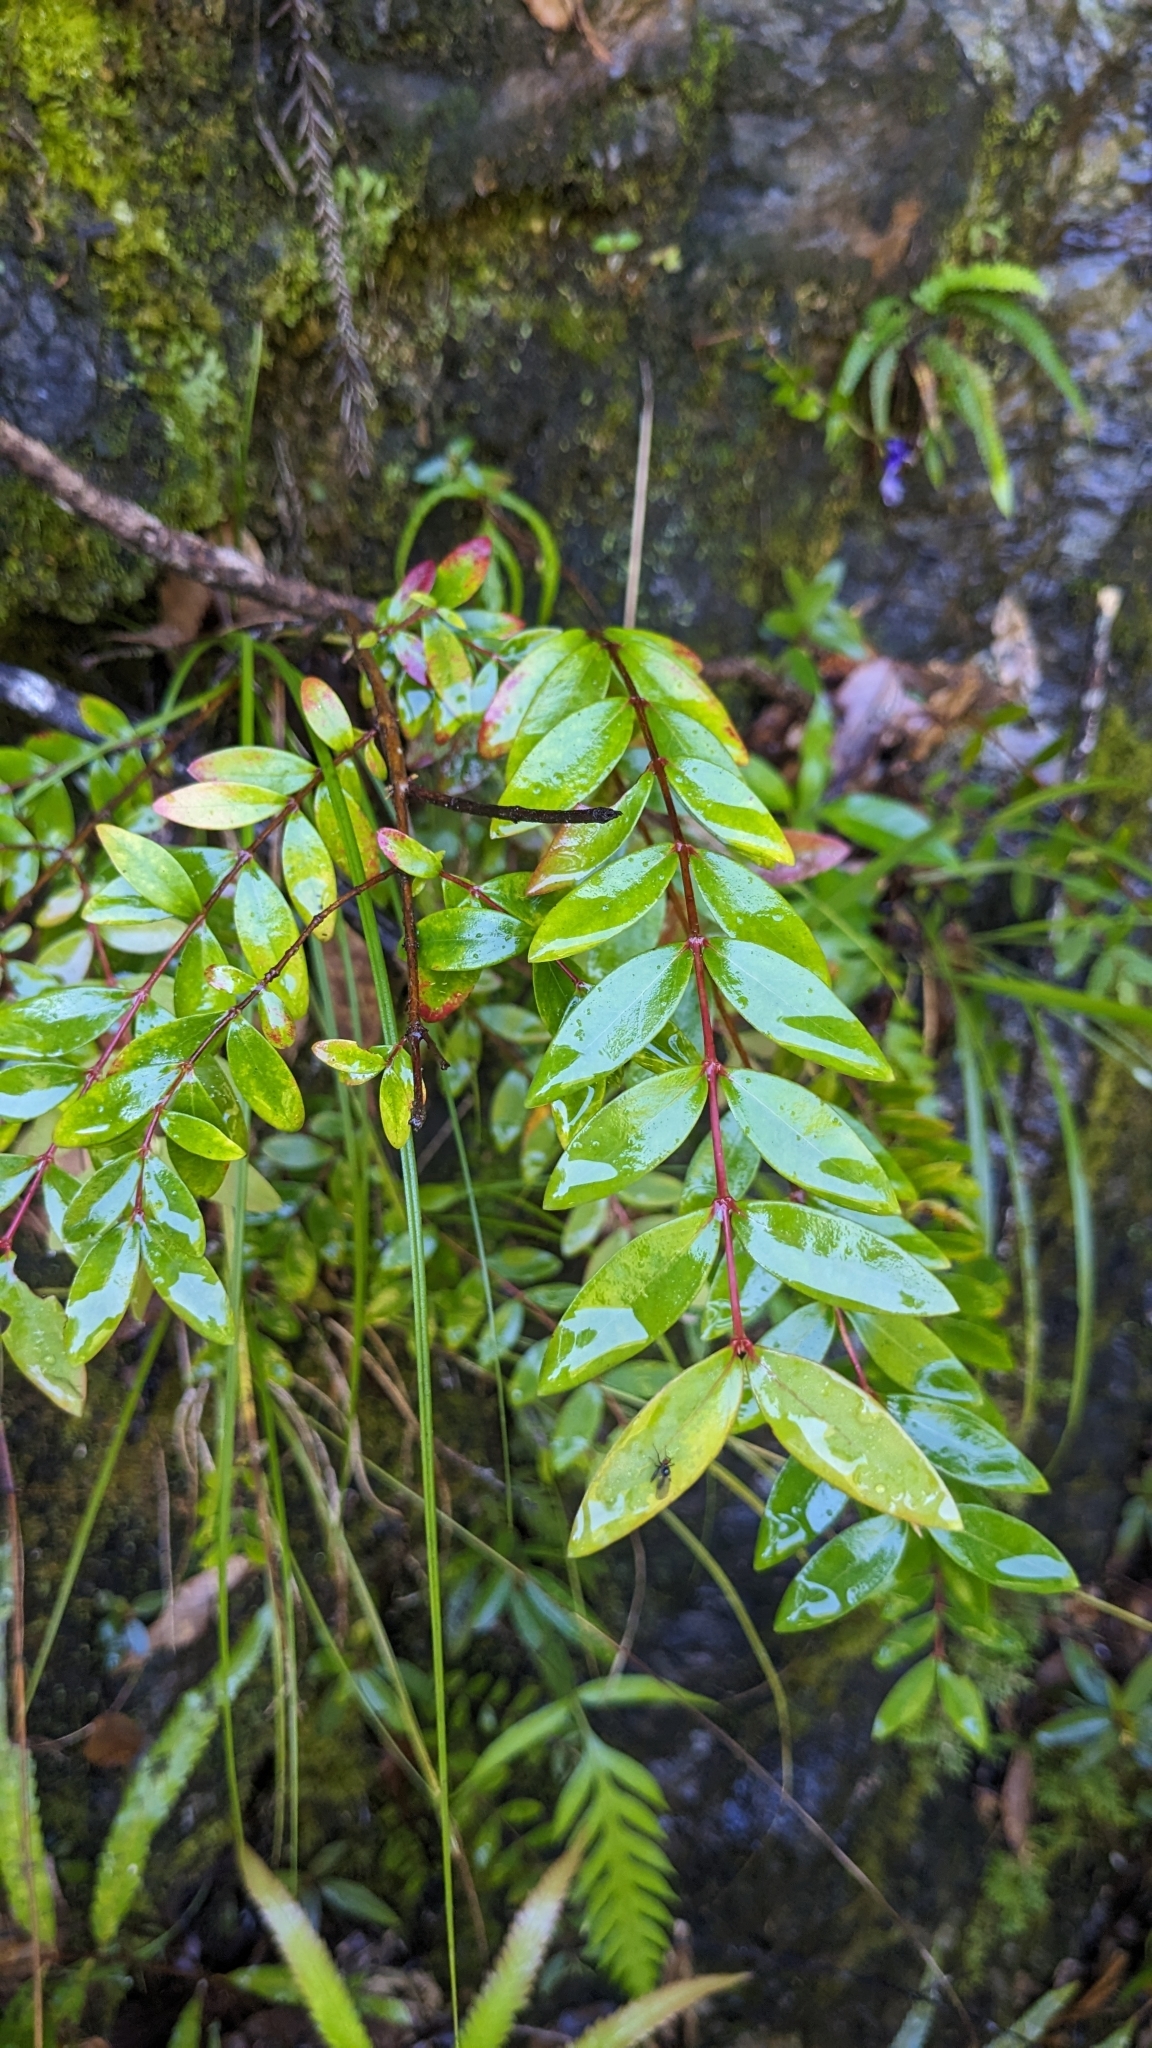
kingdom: Plantae
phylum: Tracheophyta
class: Magnoliopsida
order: Malpighiales
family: Hypericaceae
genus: Hypericum
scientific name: Hypericum geminiflorum
